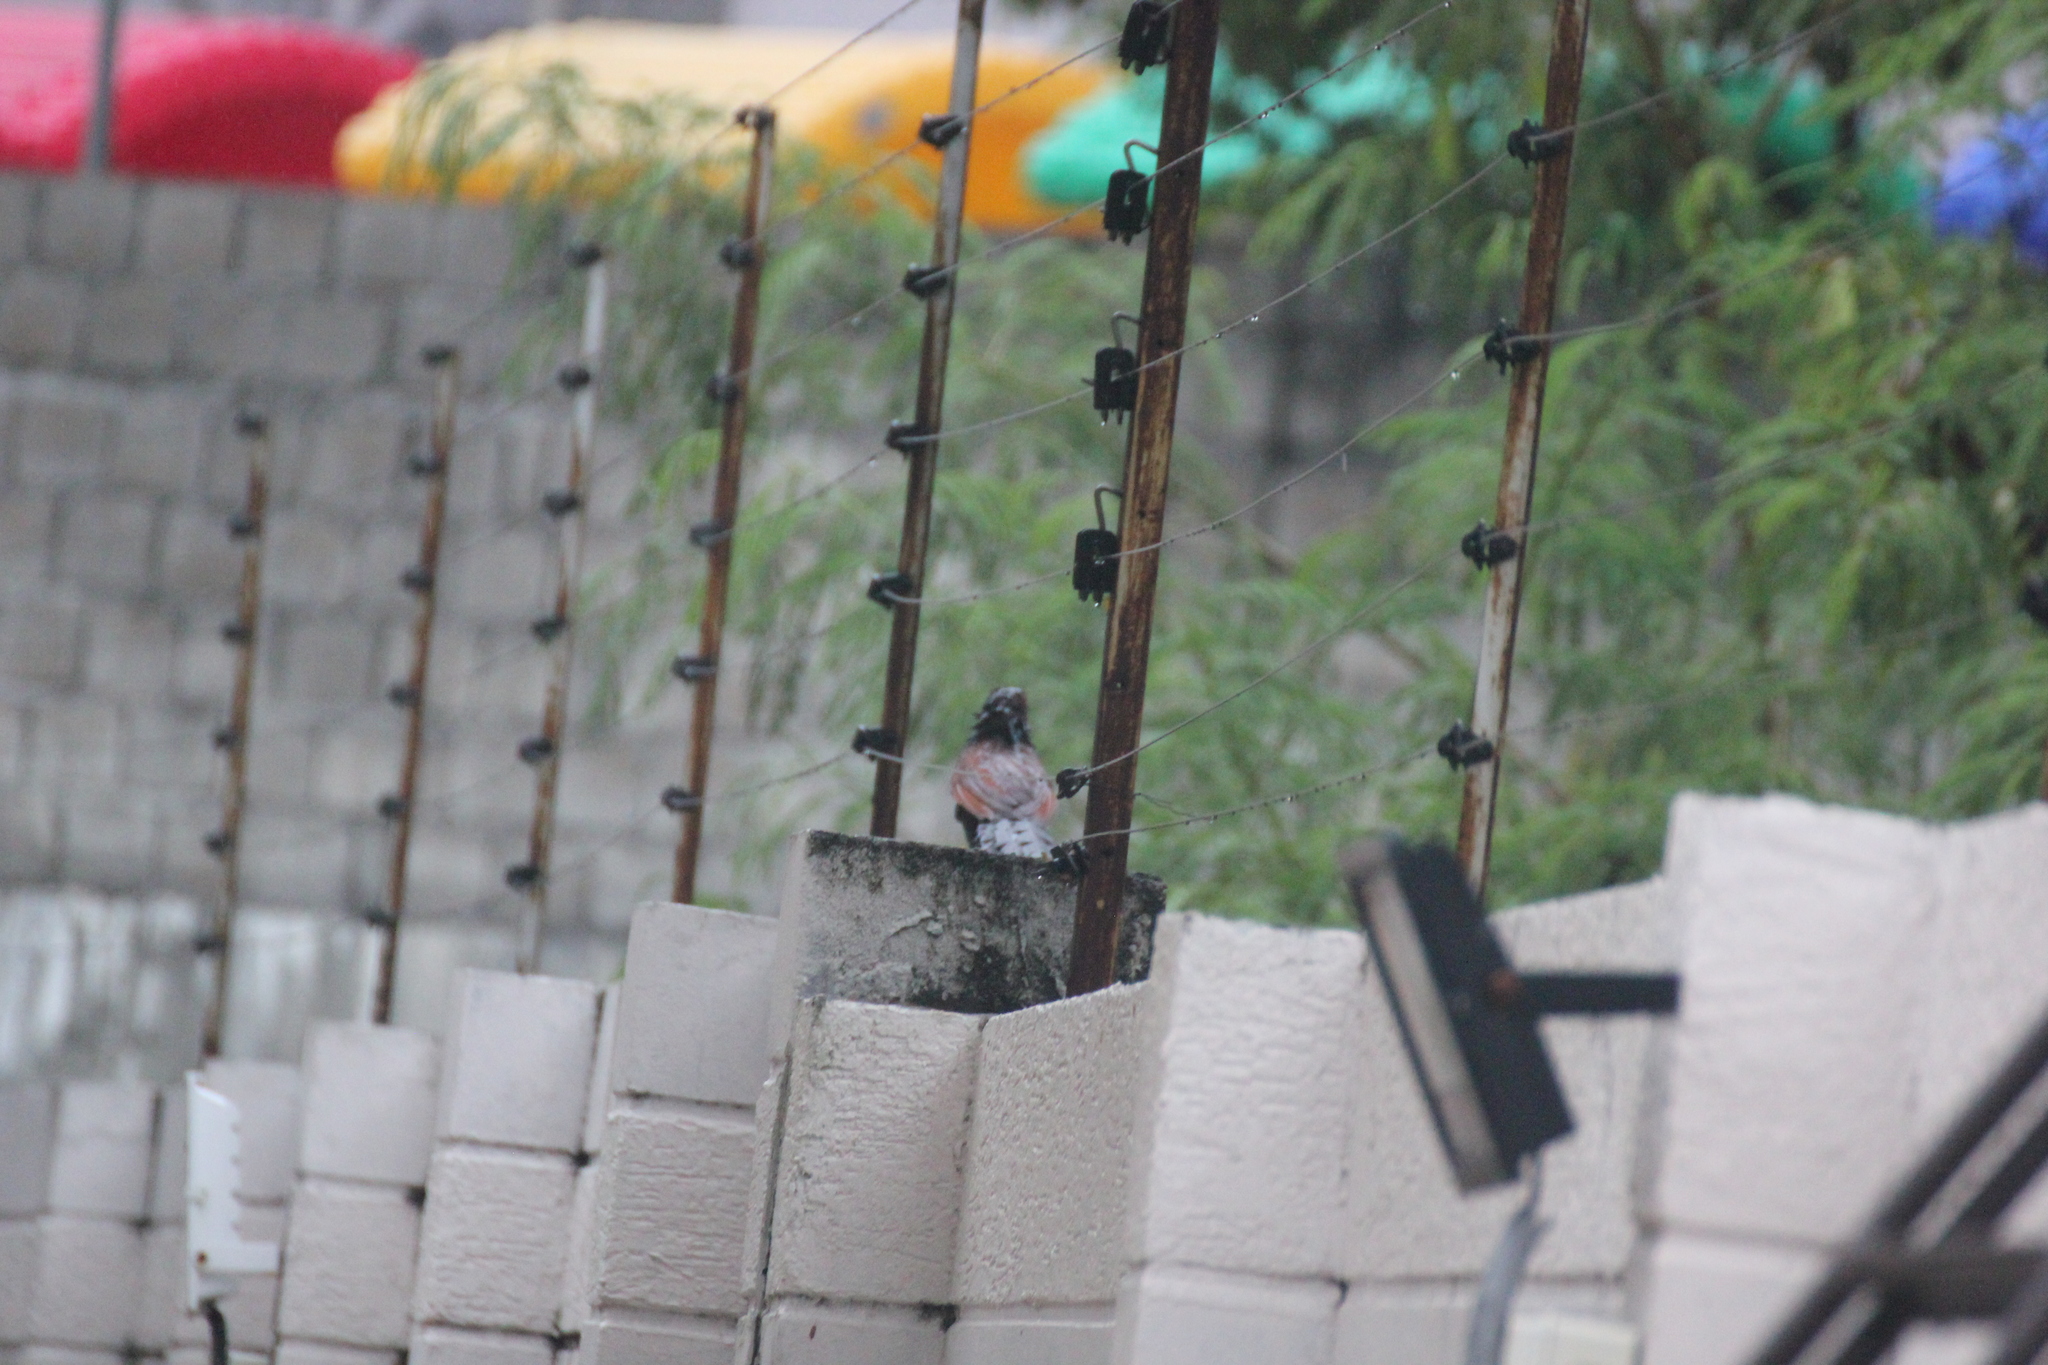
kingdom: Animalia
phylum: Chordata
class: Aves
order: Cuculiformes
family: Cuculidae
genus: Centropus
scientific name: Centropus sinensis
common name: Greater coucal
